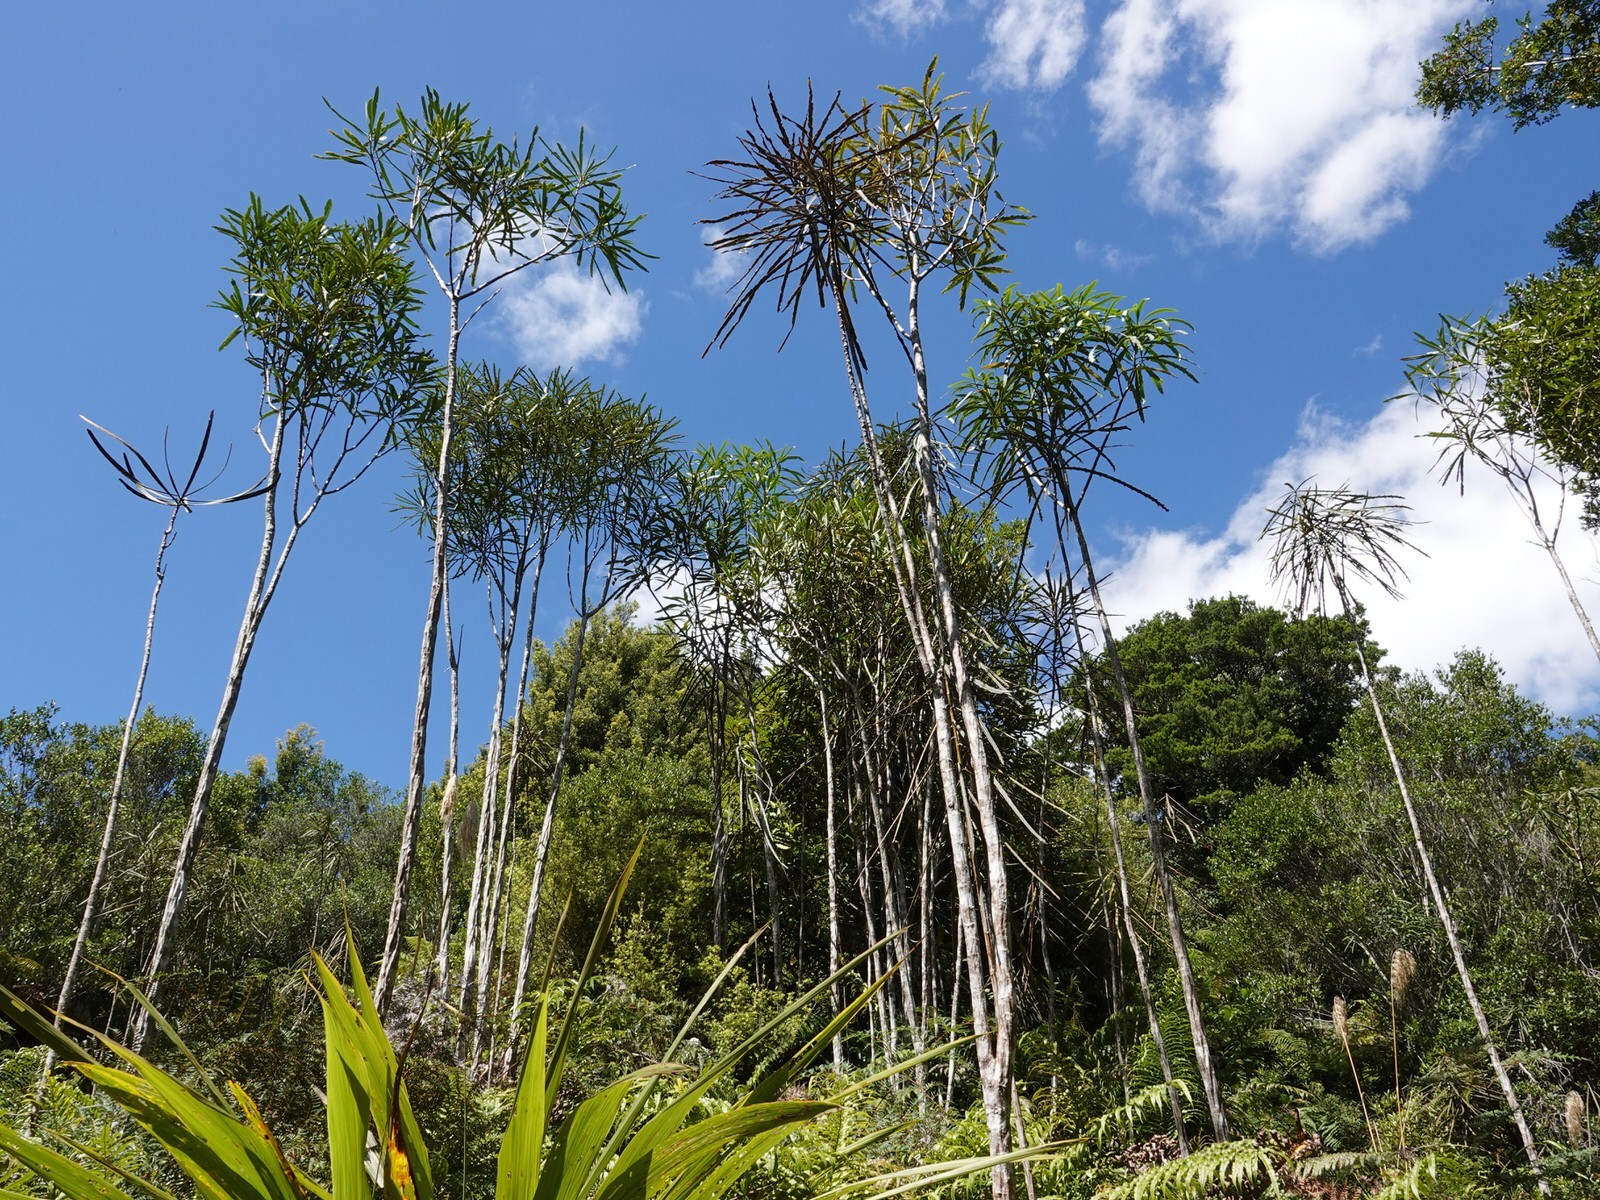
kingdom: Plantae
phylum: Tracheophyta
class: Magnoliopsida
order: Apiales
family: Araliaceae
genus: Pseudopanax
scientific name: Pseudopanax crassifolius
